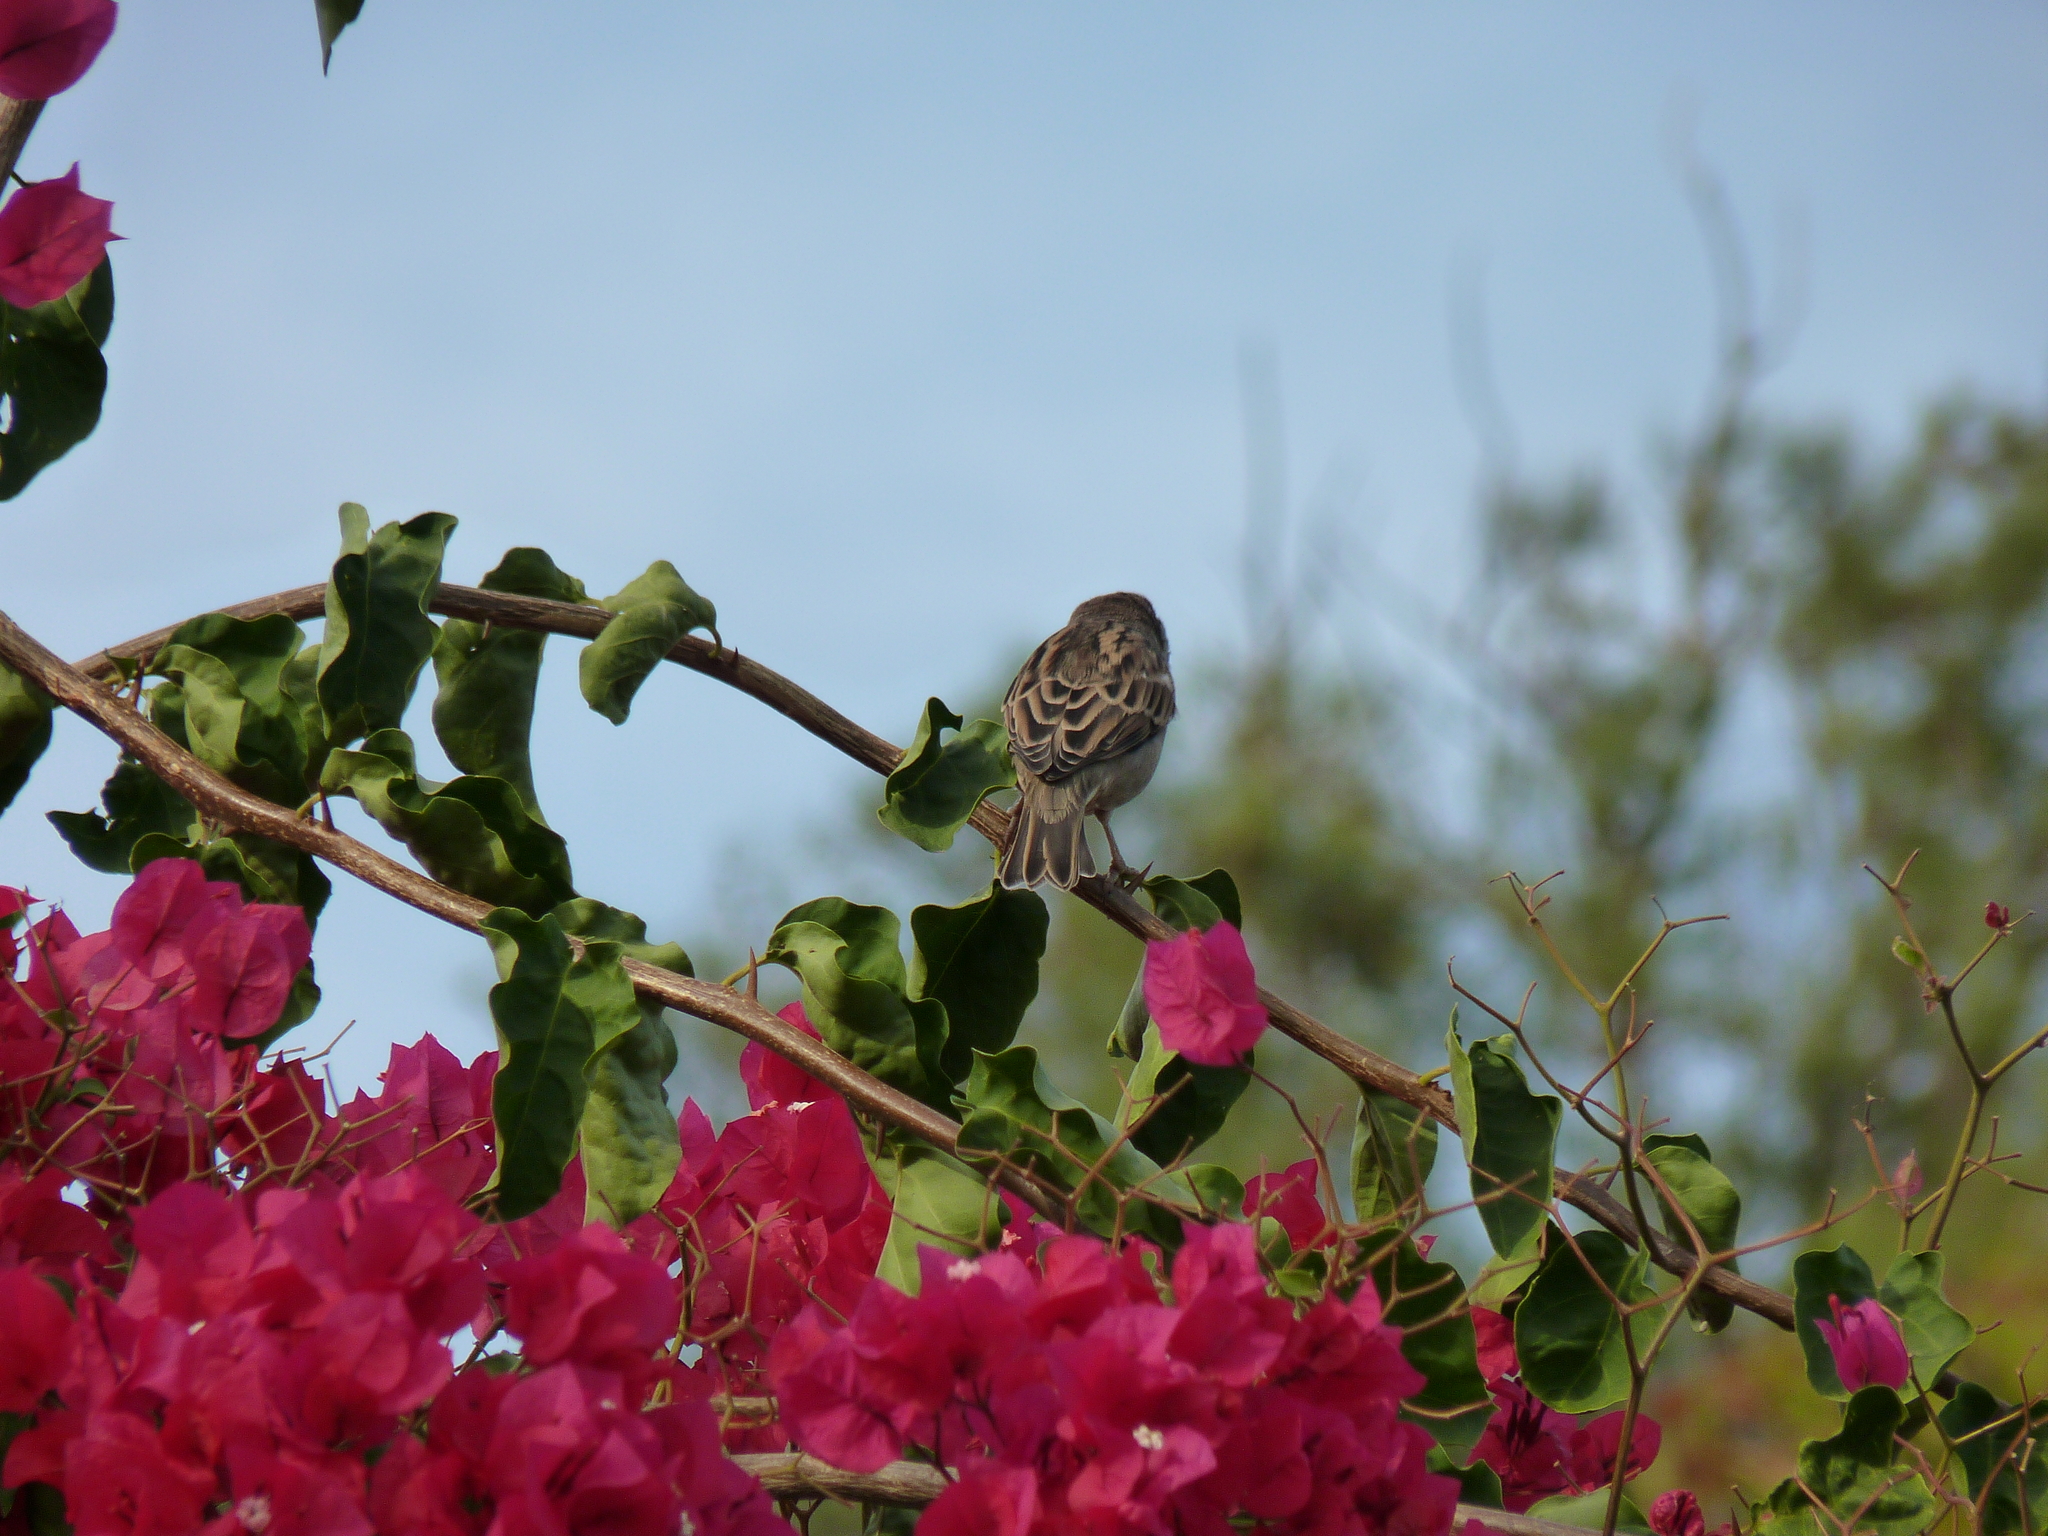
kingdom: Animalia
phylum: Chordata
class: Aves
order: Passeriformes
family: Passeridae
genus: Passer
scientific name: Passer domesticus
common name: House sparrow
